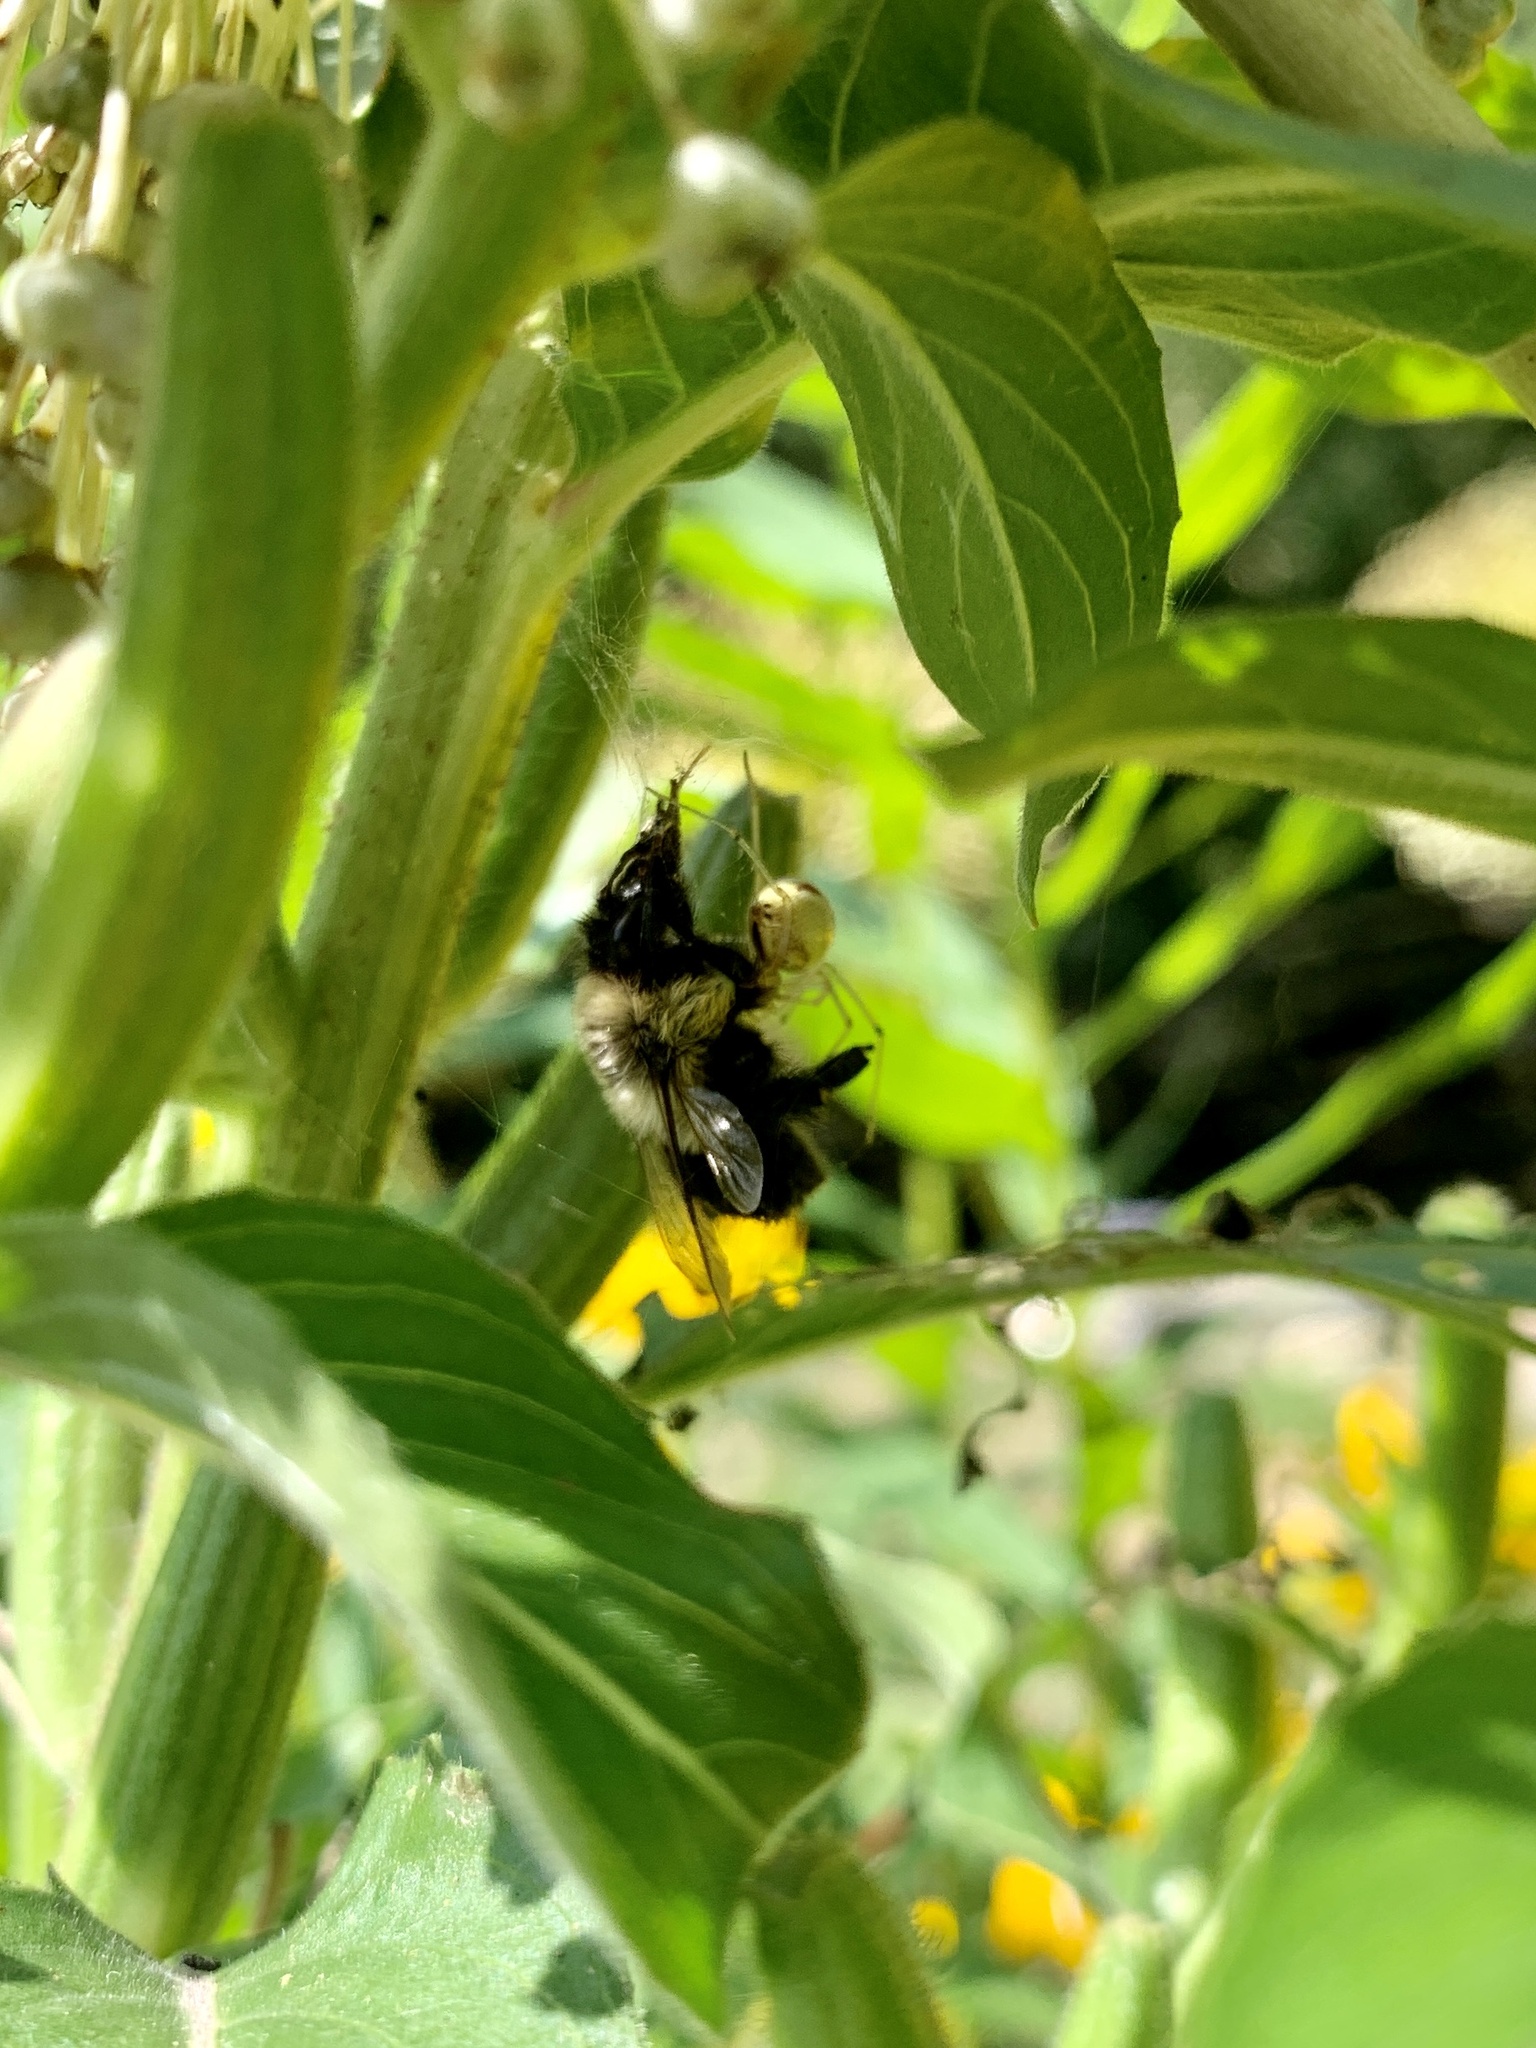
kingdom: Animalia
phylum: Arthropoda
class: Insecta
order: Hymenoptera
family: Apidae
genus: Bombus
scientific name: Bombus impatiens
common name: Common eastern bumble bee
